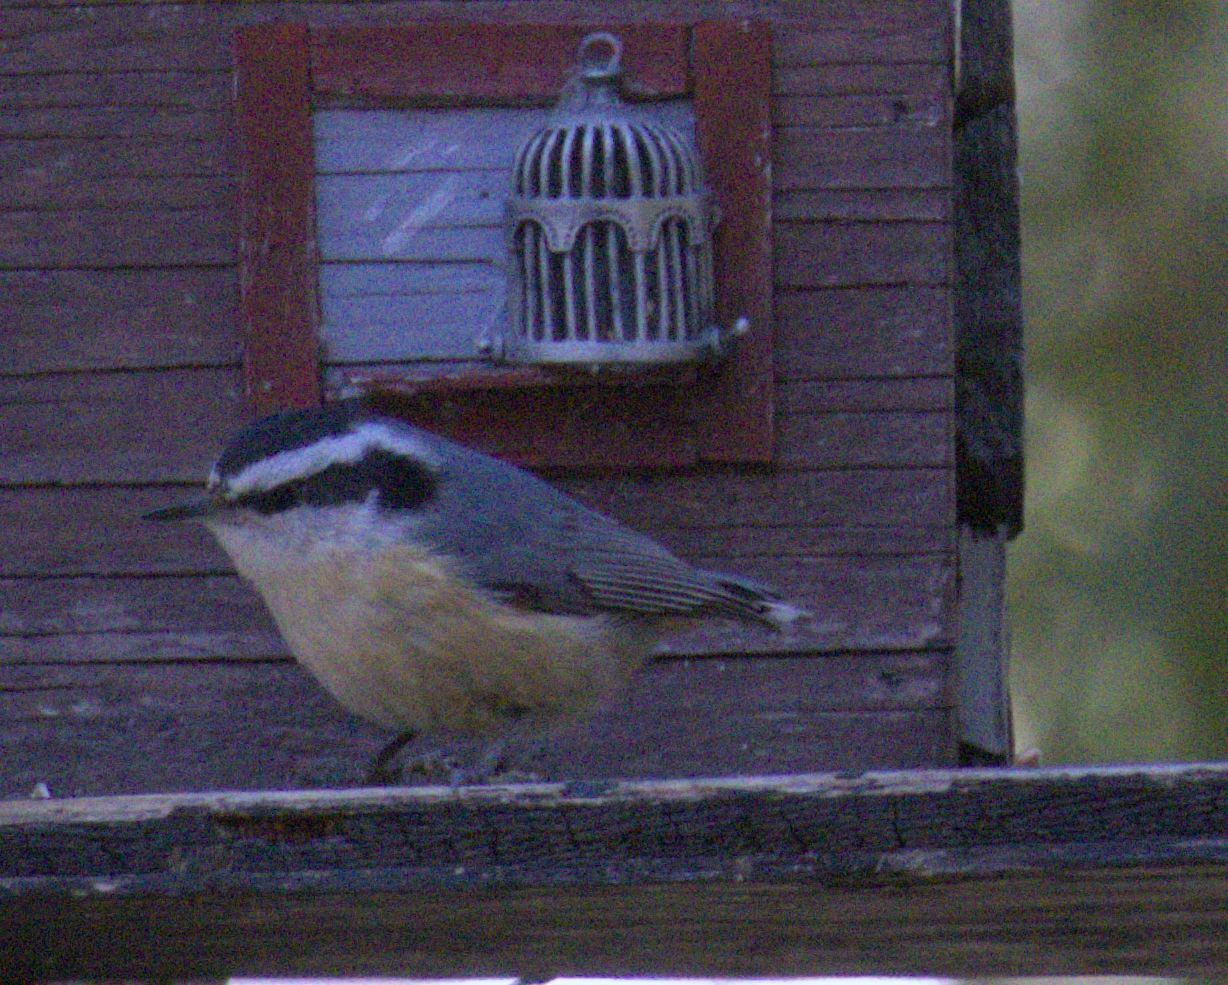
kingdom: Animalia
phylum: Chordata
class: Aves
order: Passeriformes
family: Sittidae
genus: Sitta
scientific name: Sitta canadensis
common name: Red-breasted nuthatch
